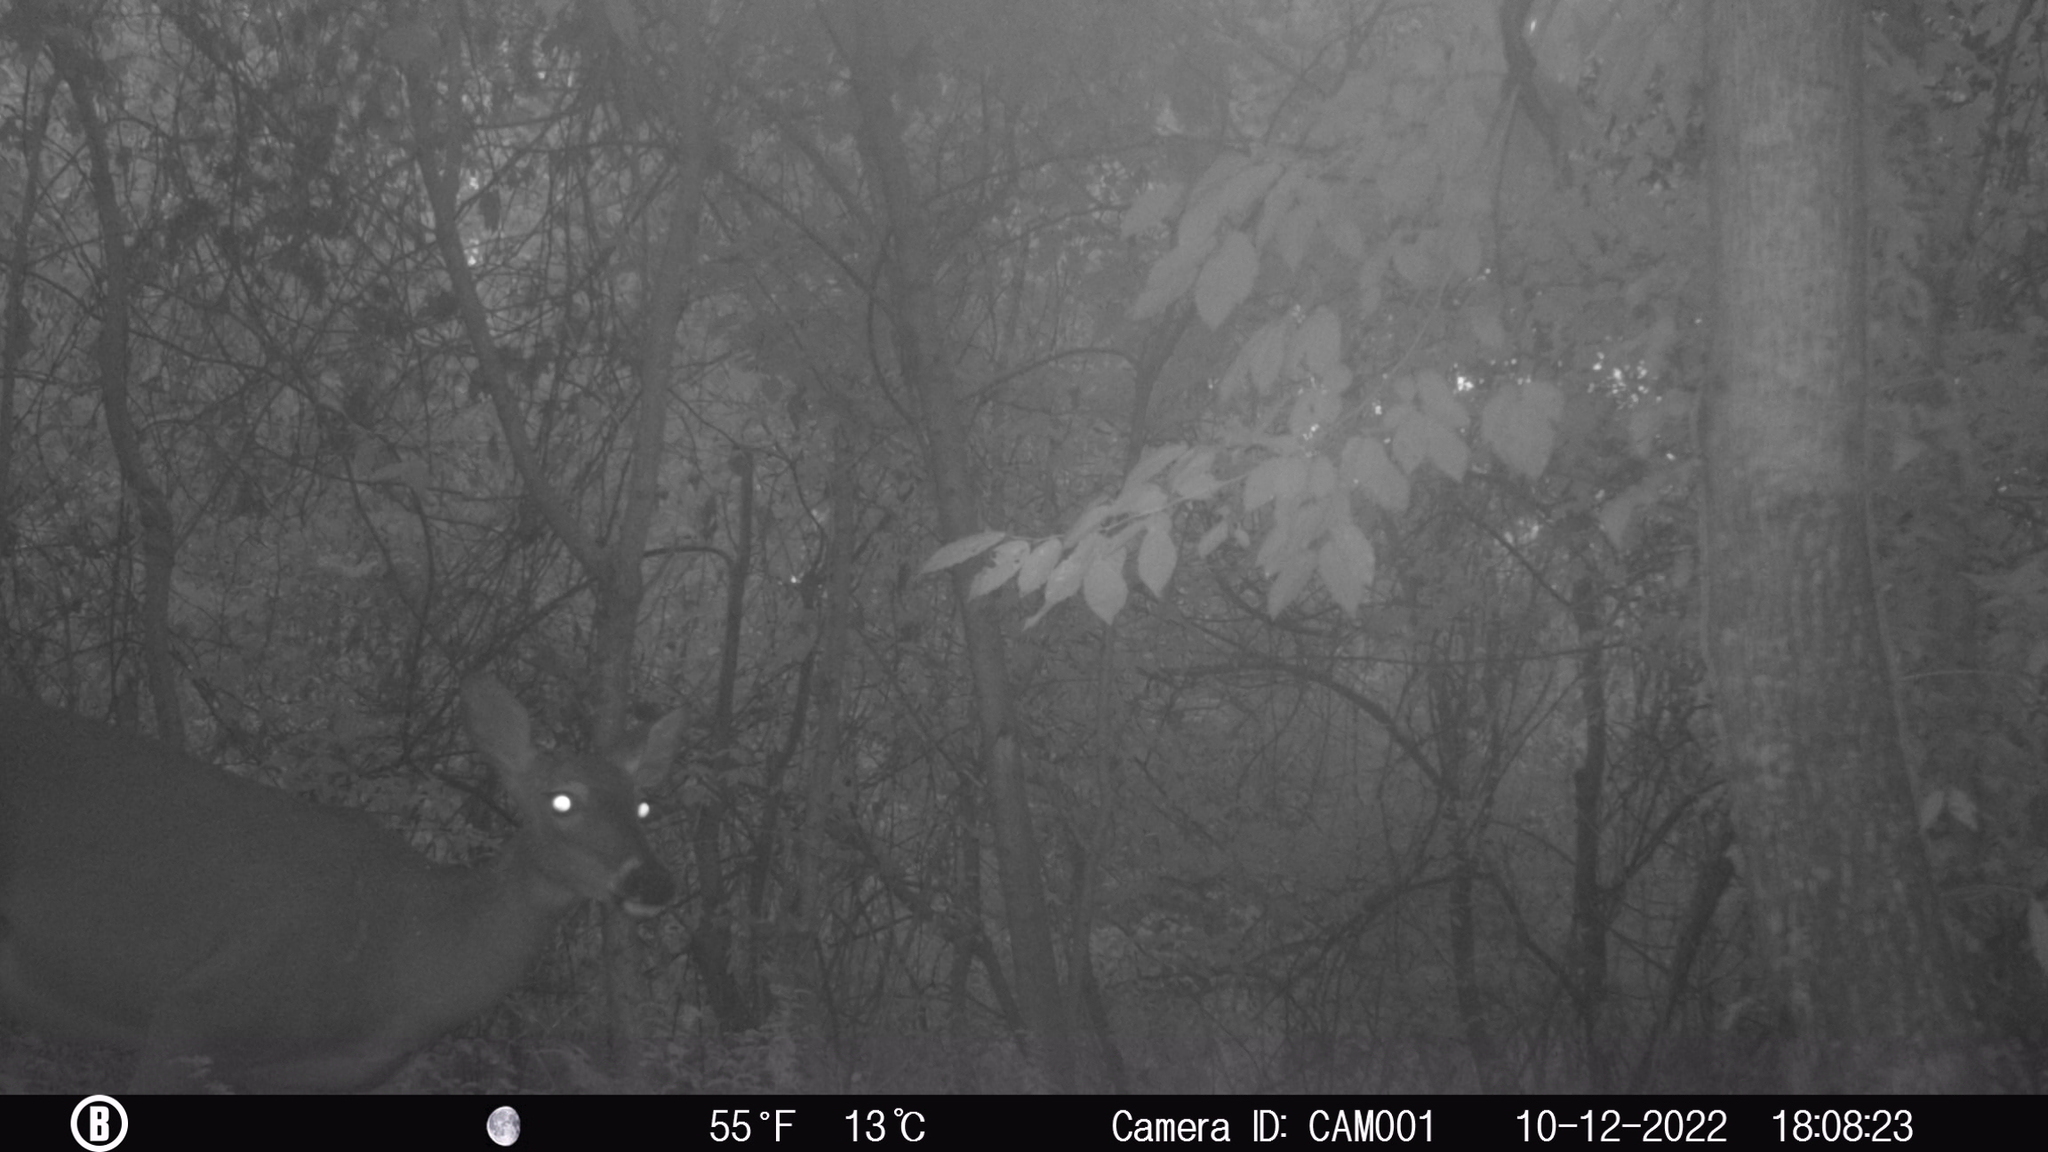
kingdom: Animalia
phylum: Chordata
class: Mammalia
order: Artiodactyla
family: Cervidae
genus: Odocoileus
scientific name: Odocoileus virginianus
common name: White-tailed deer
